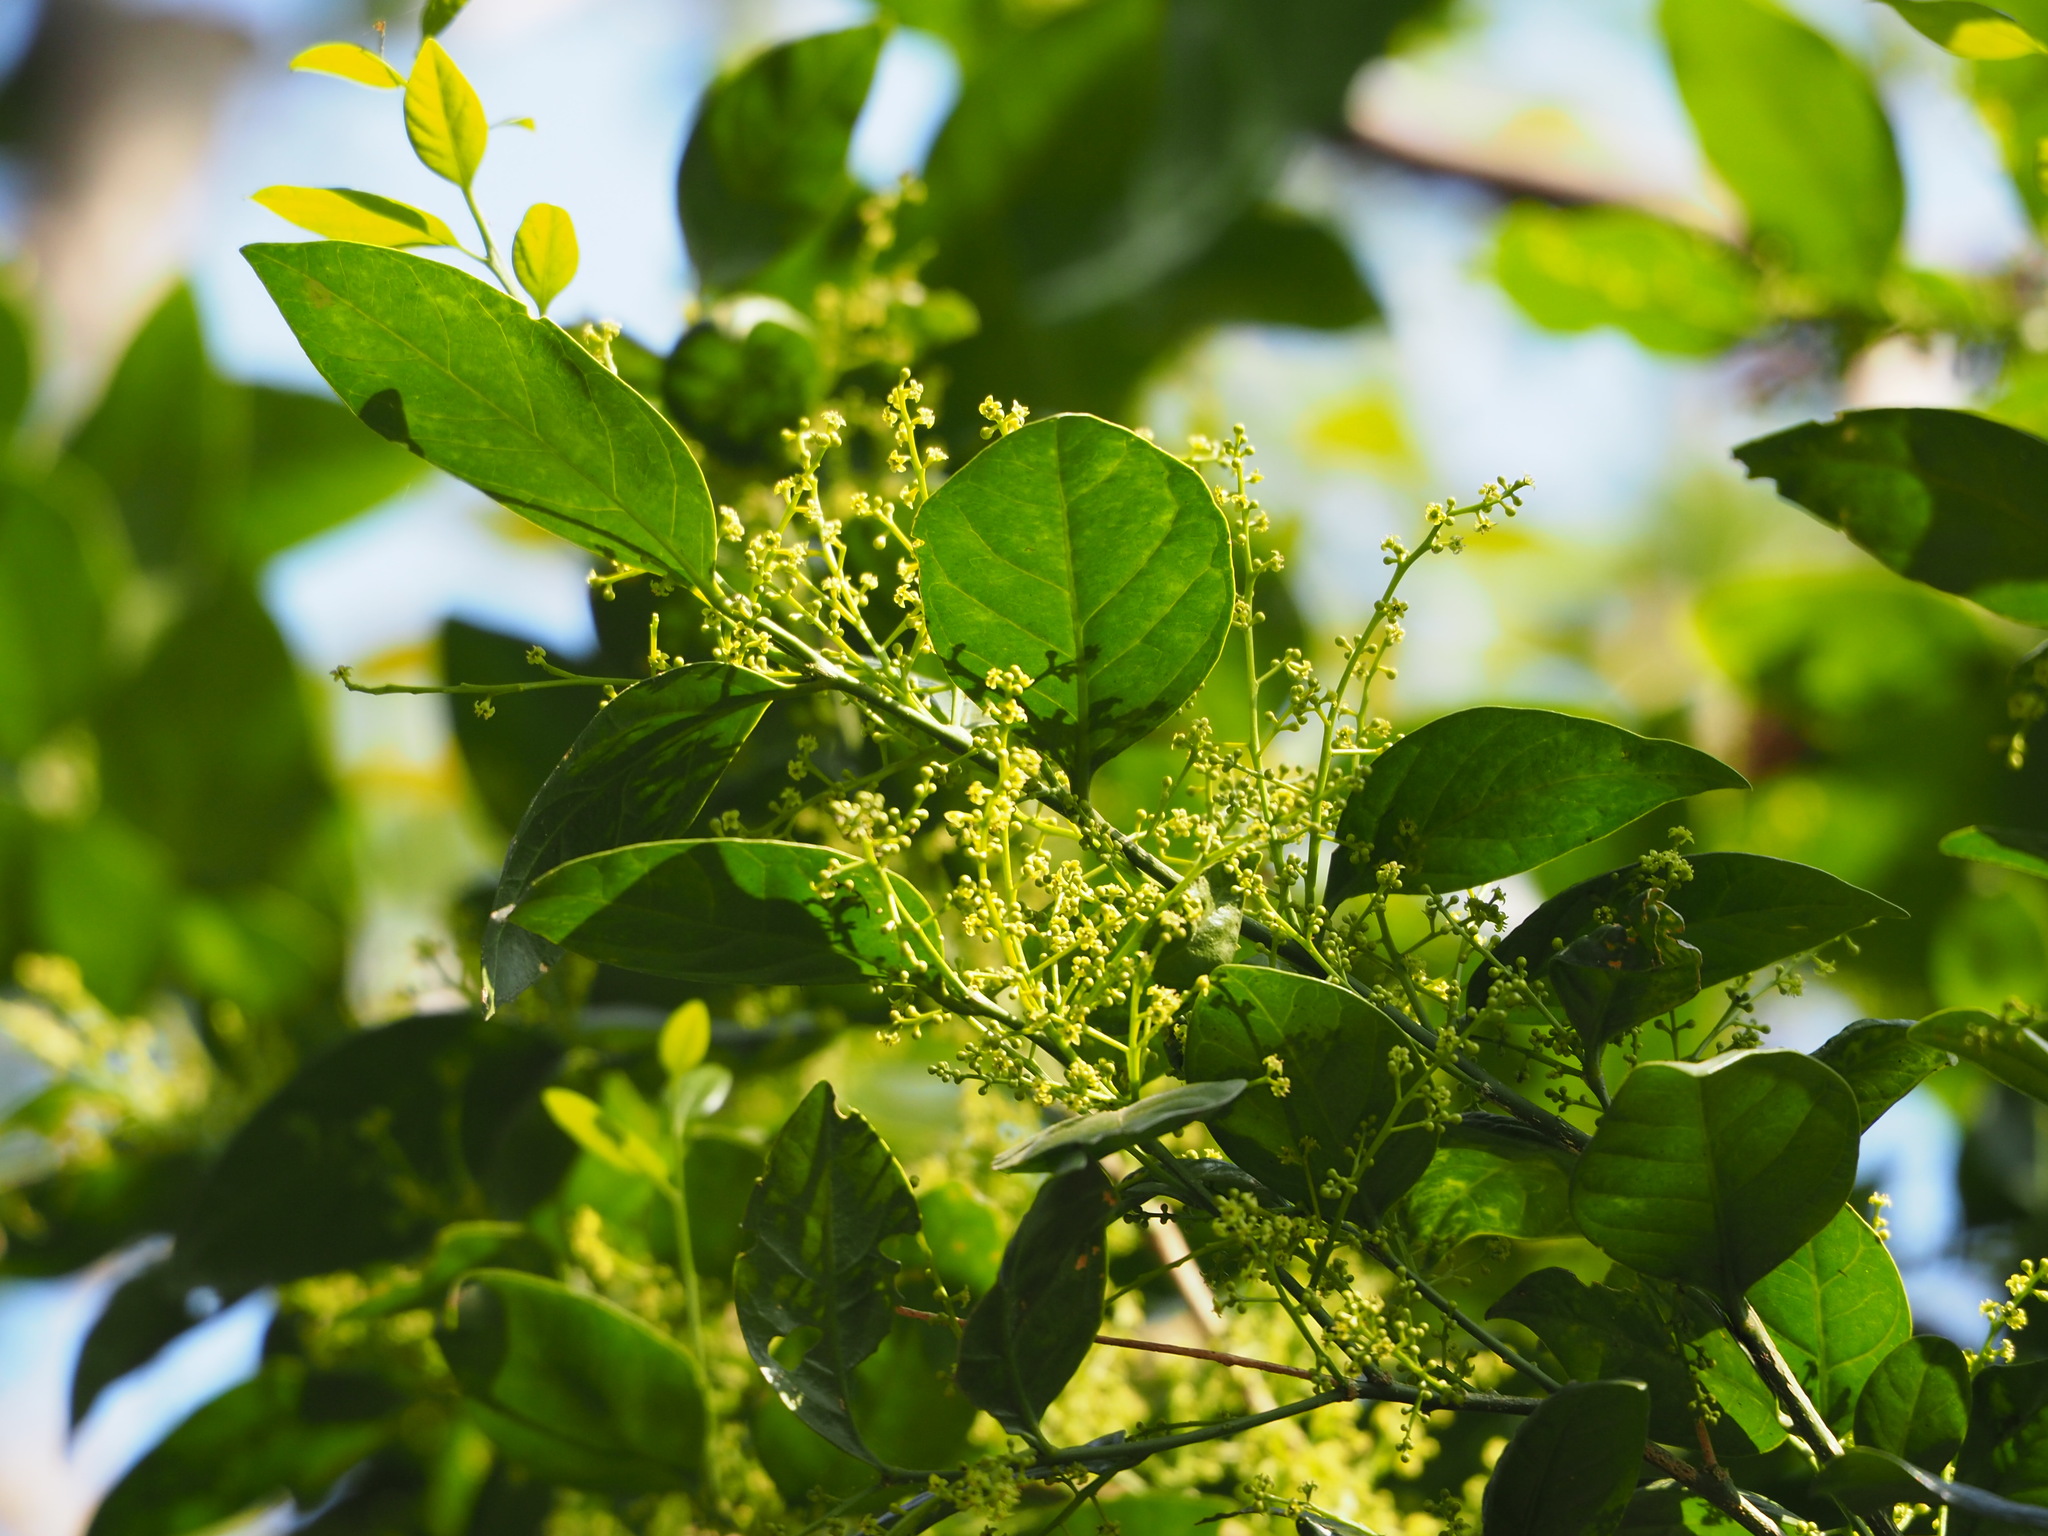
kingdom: Plantae
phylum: Tracheophyta
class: Magnoliopsida
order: Santalales
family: Opiliaceae
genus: Champereia
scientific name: Champereia manillana
